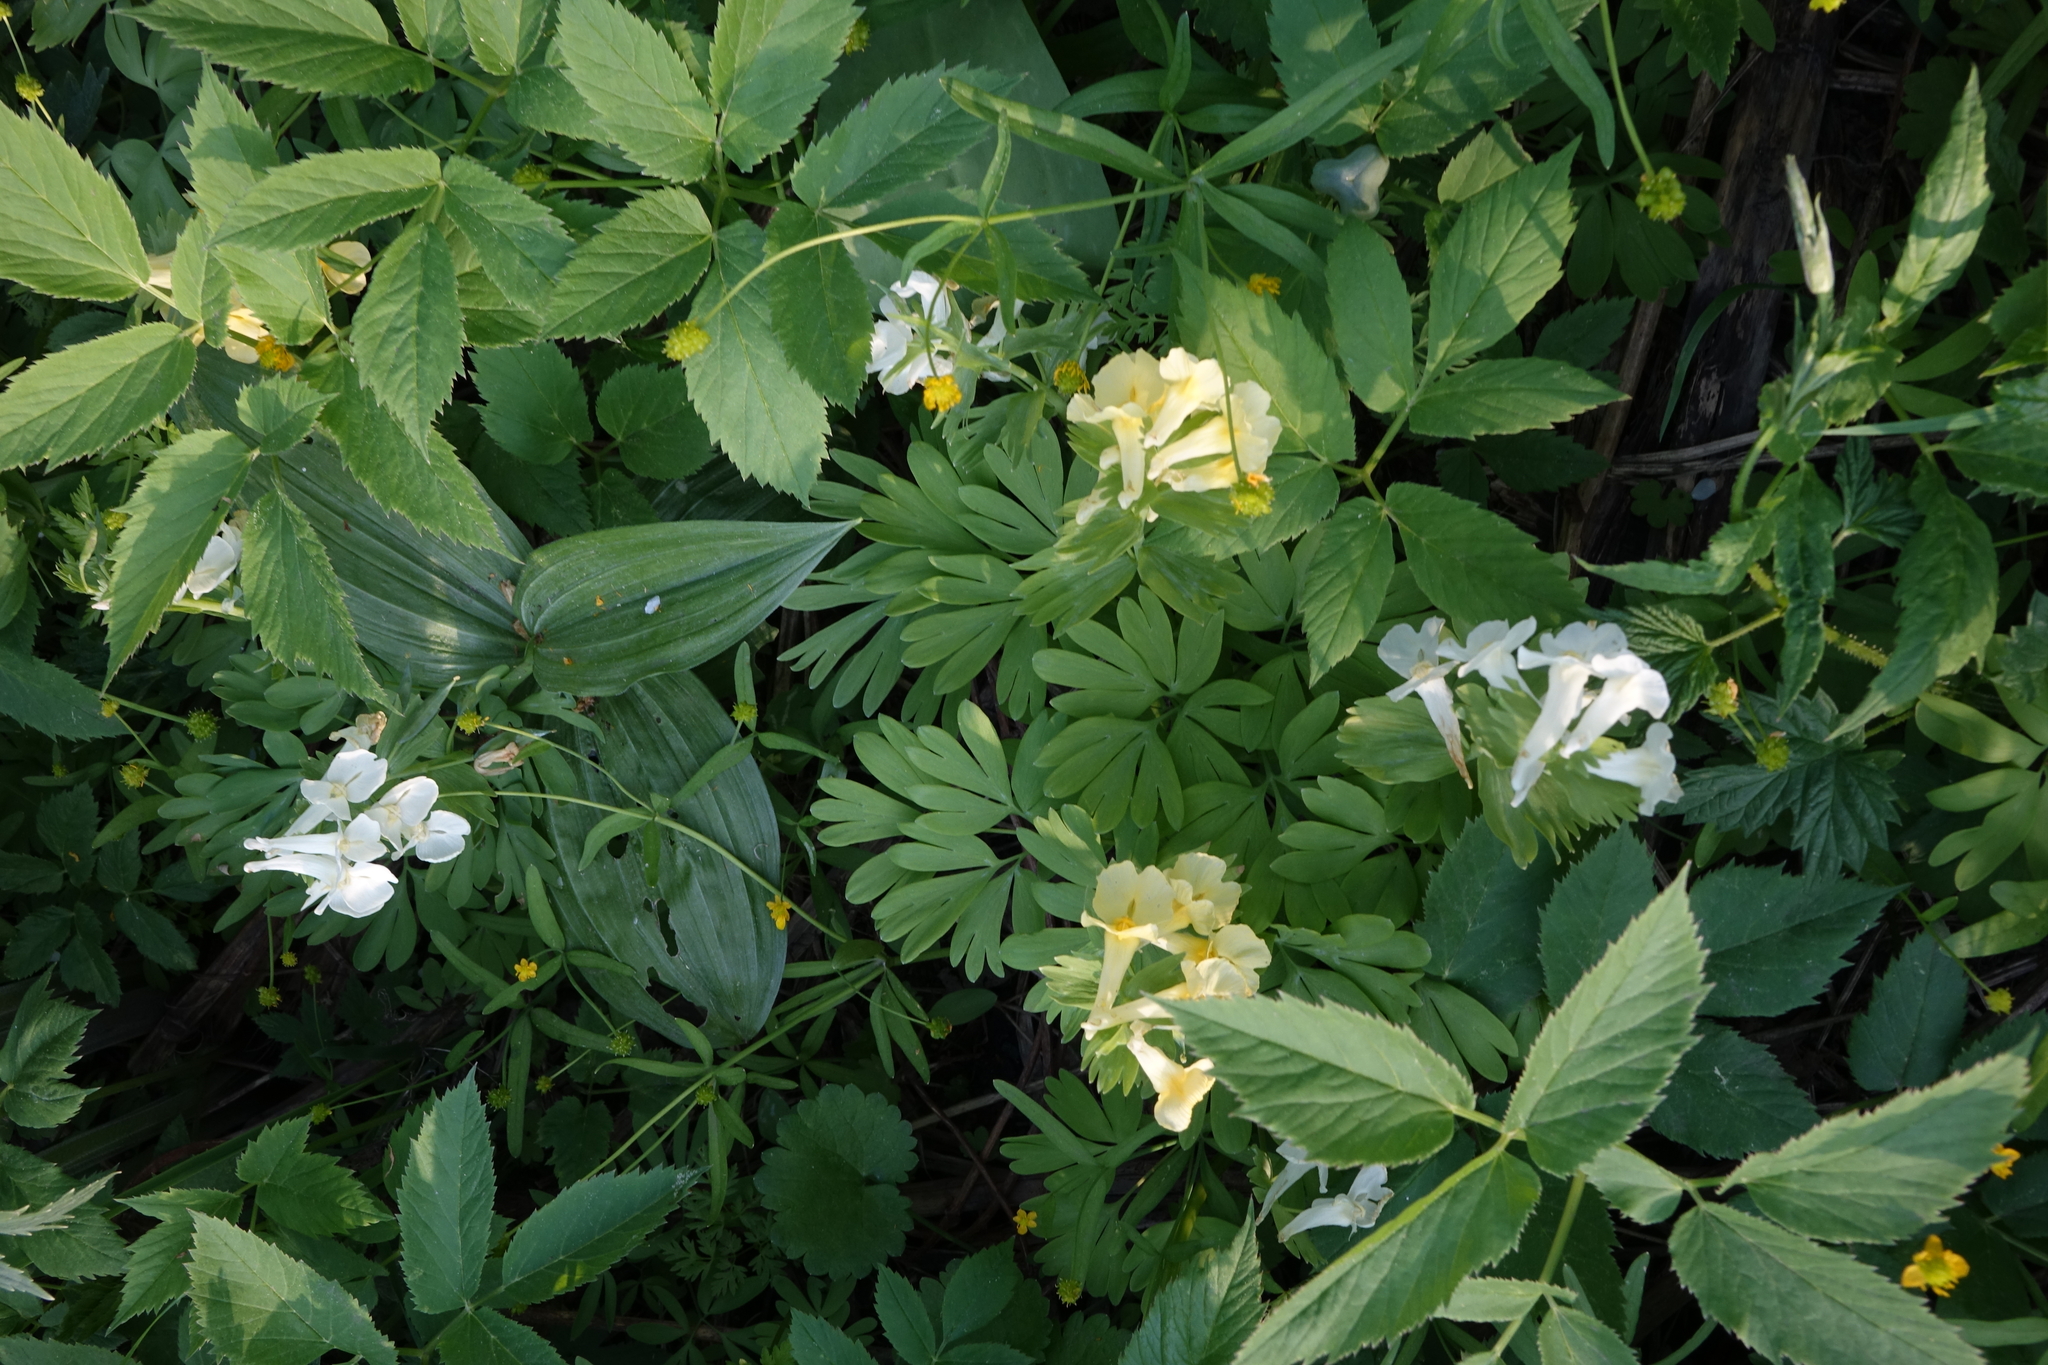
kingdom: Plantae
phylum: Tracheophyta
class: Magnoliopsida
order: Ranunculales
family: Papaveraceae
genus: Corydalis
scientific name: Corydalis bracteata
